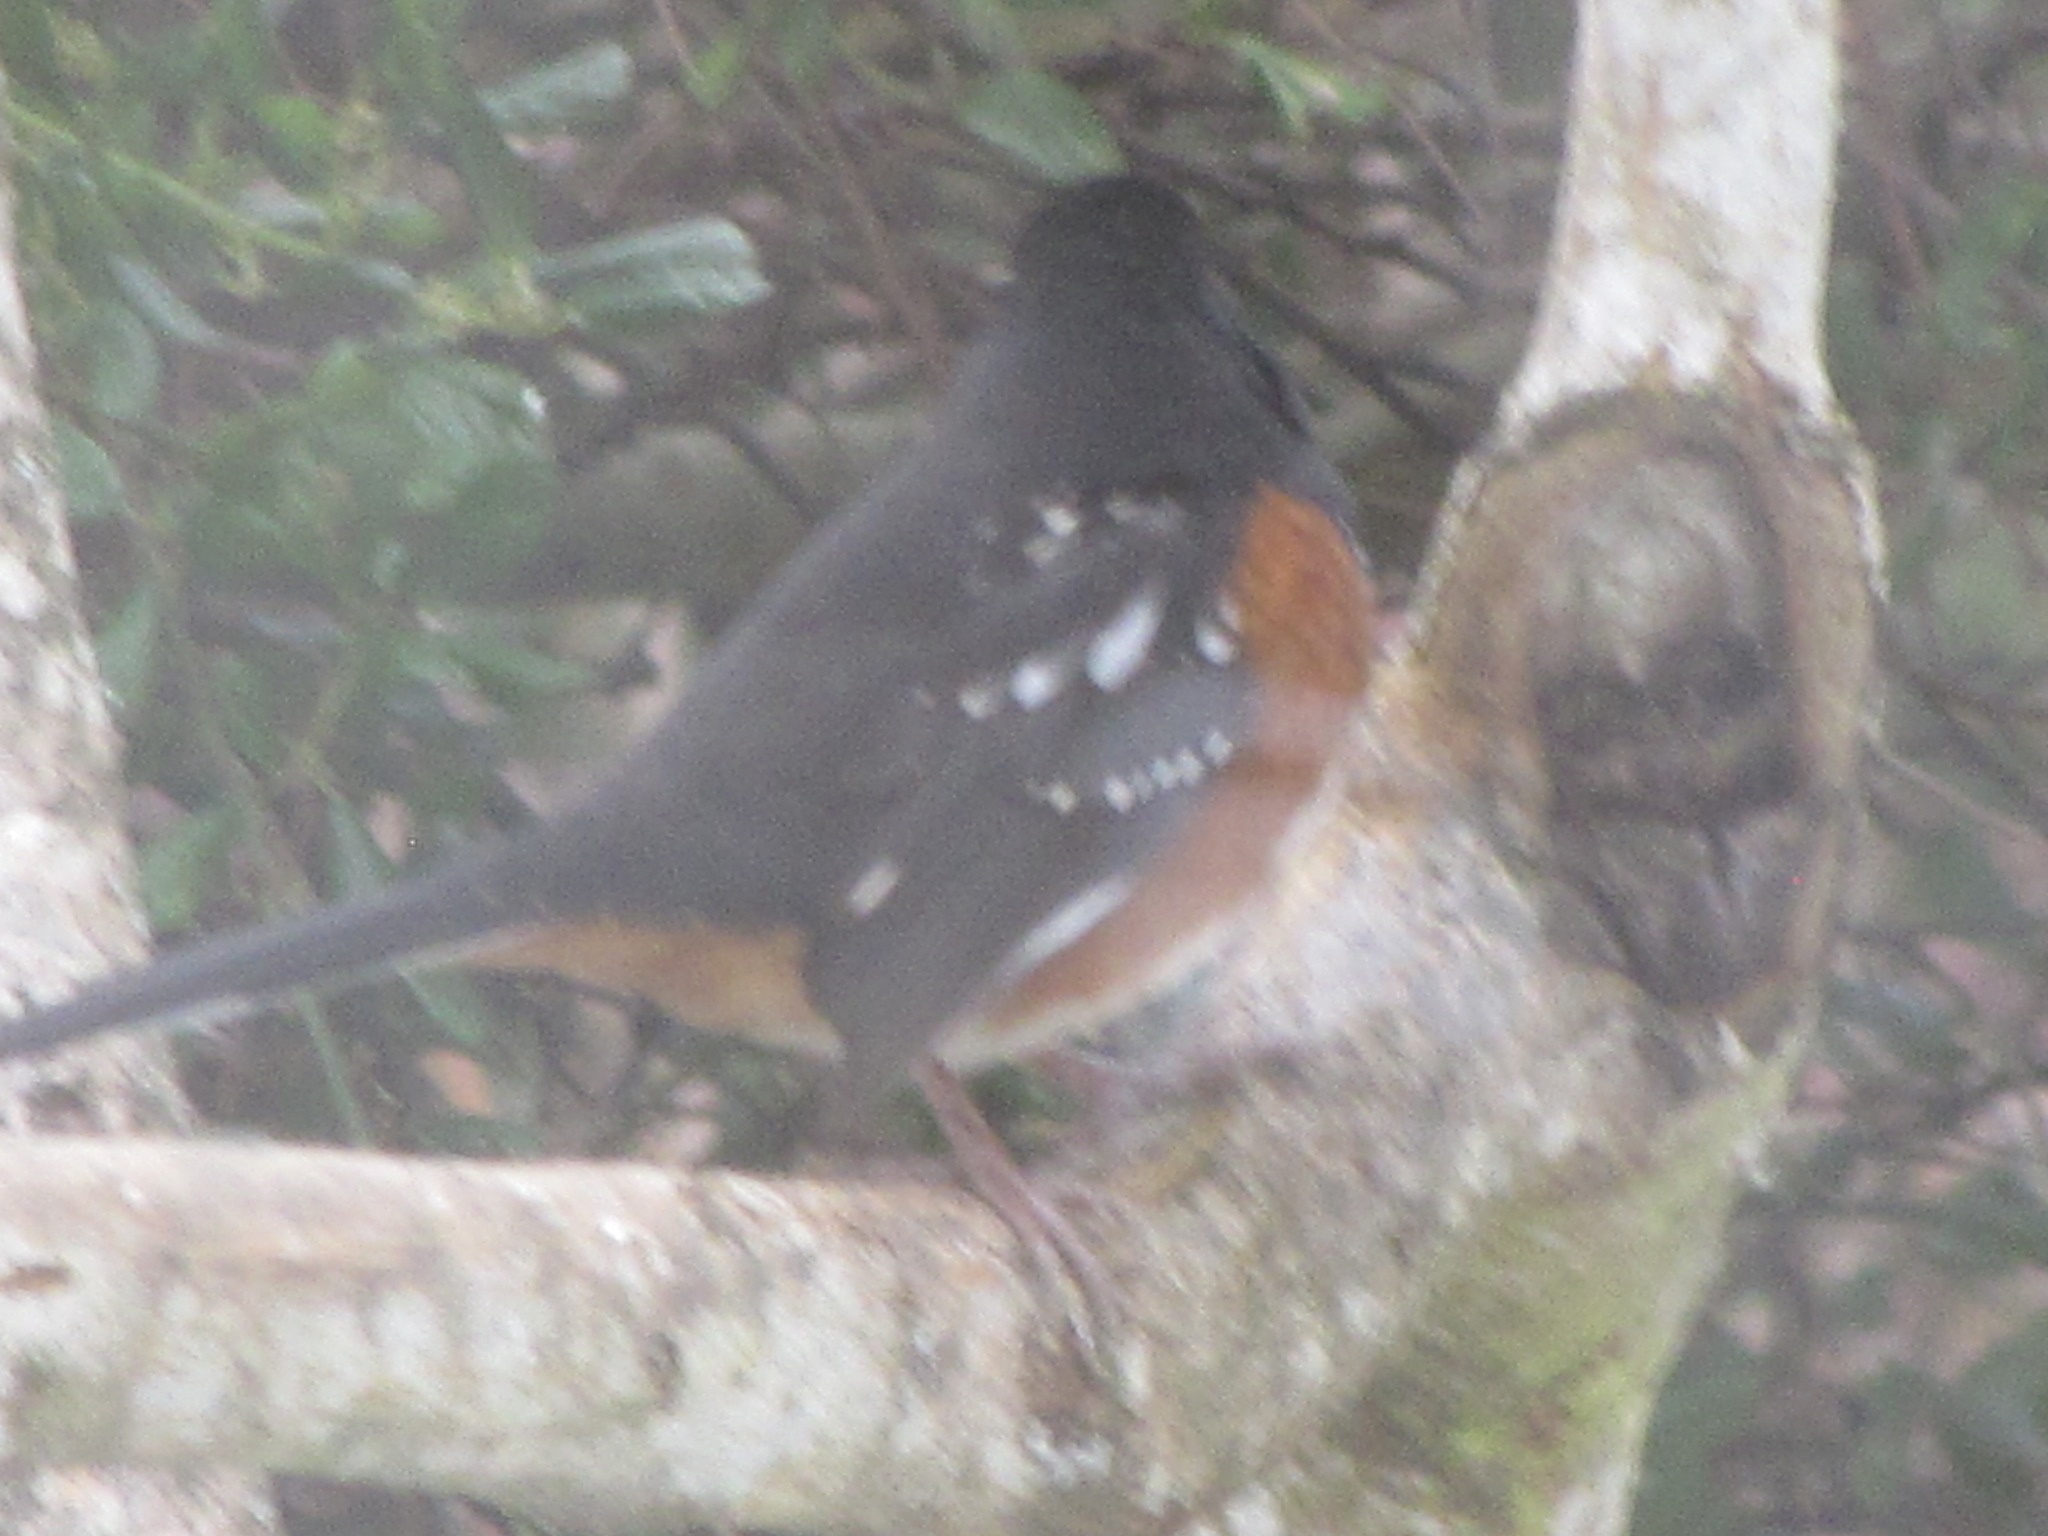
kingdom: Animalia
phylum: Chordata
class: Aves
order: Passeriformes
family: Passerellidae
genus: Pipilo
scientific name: Pipilo maculatus
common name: Spotted towhee
